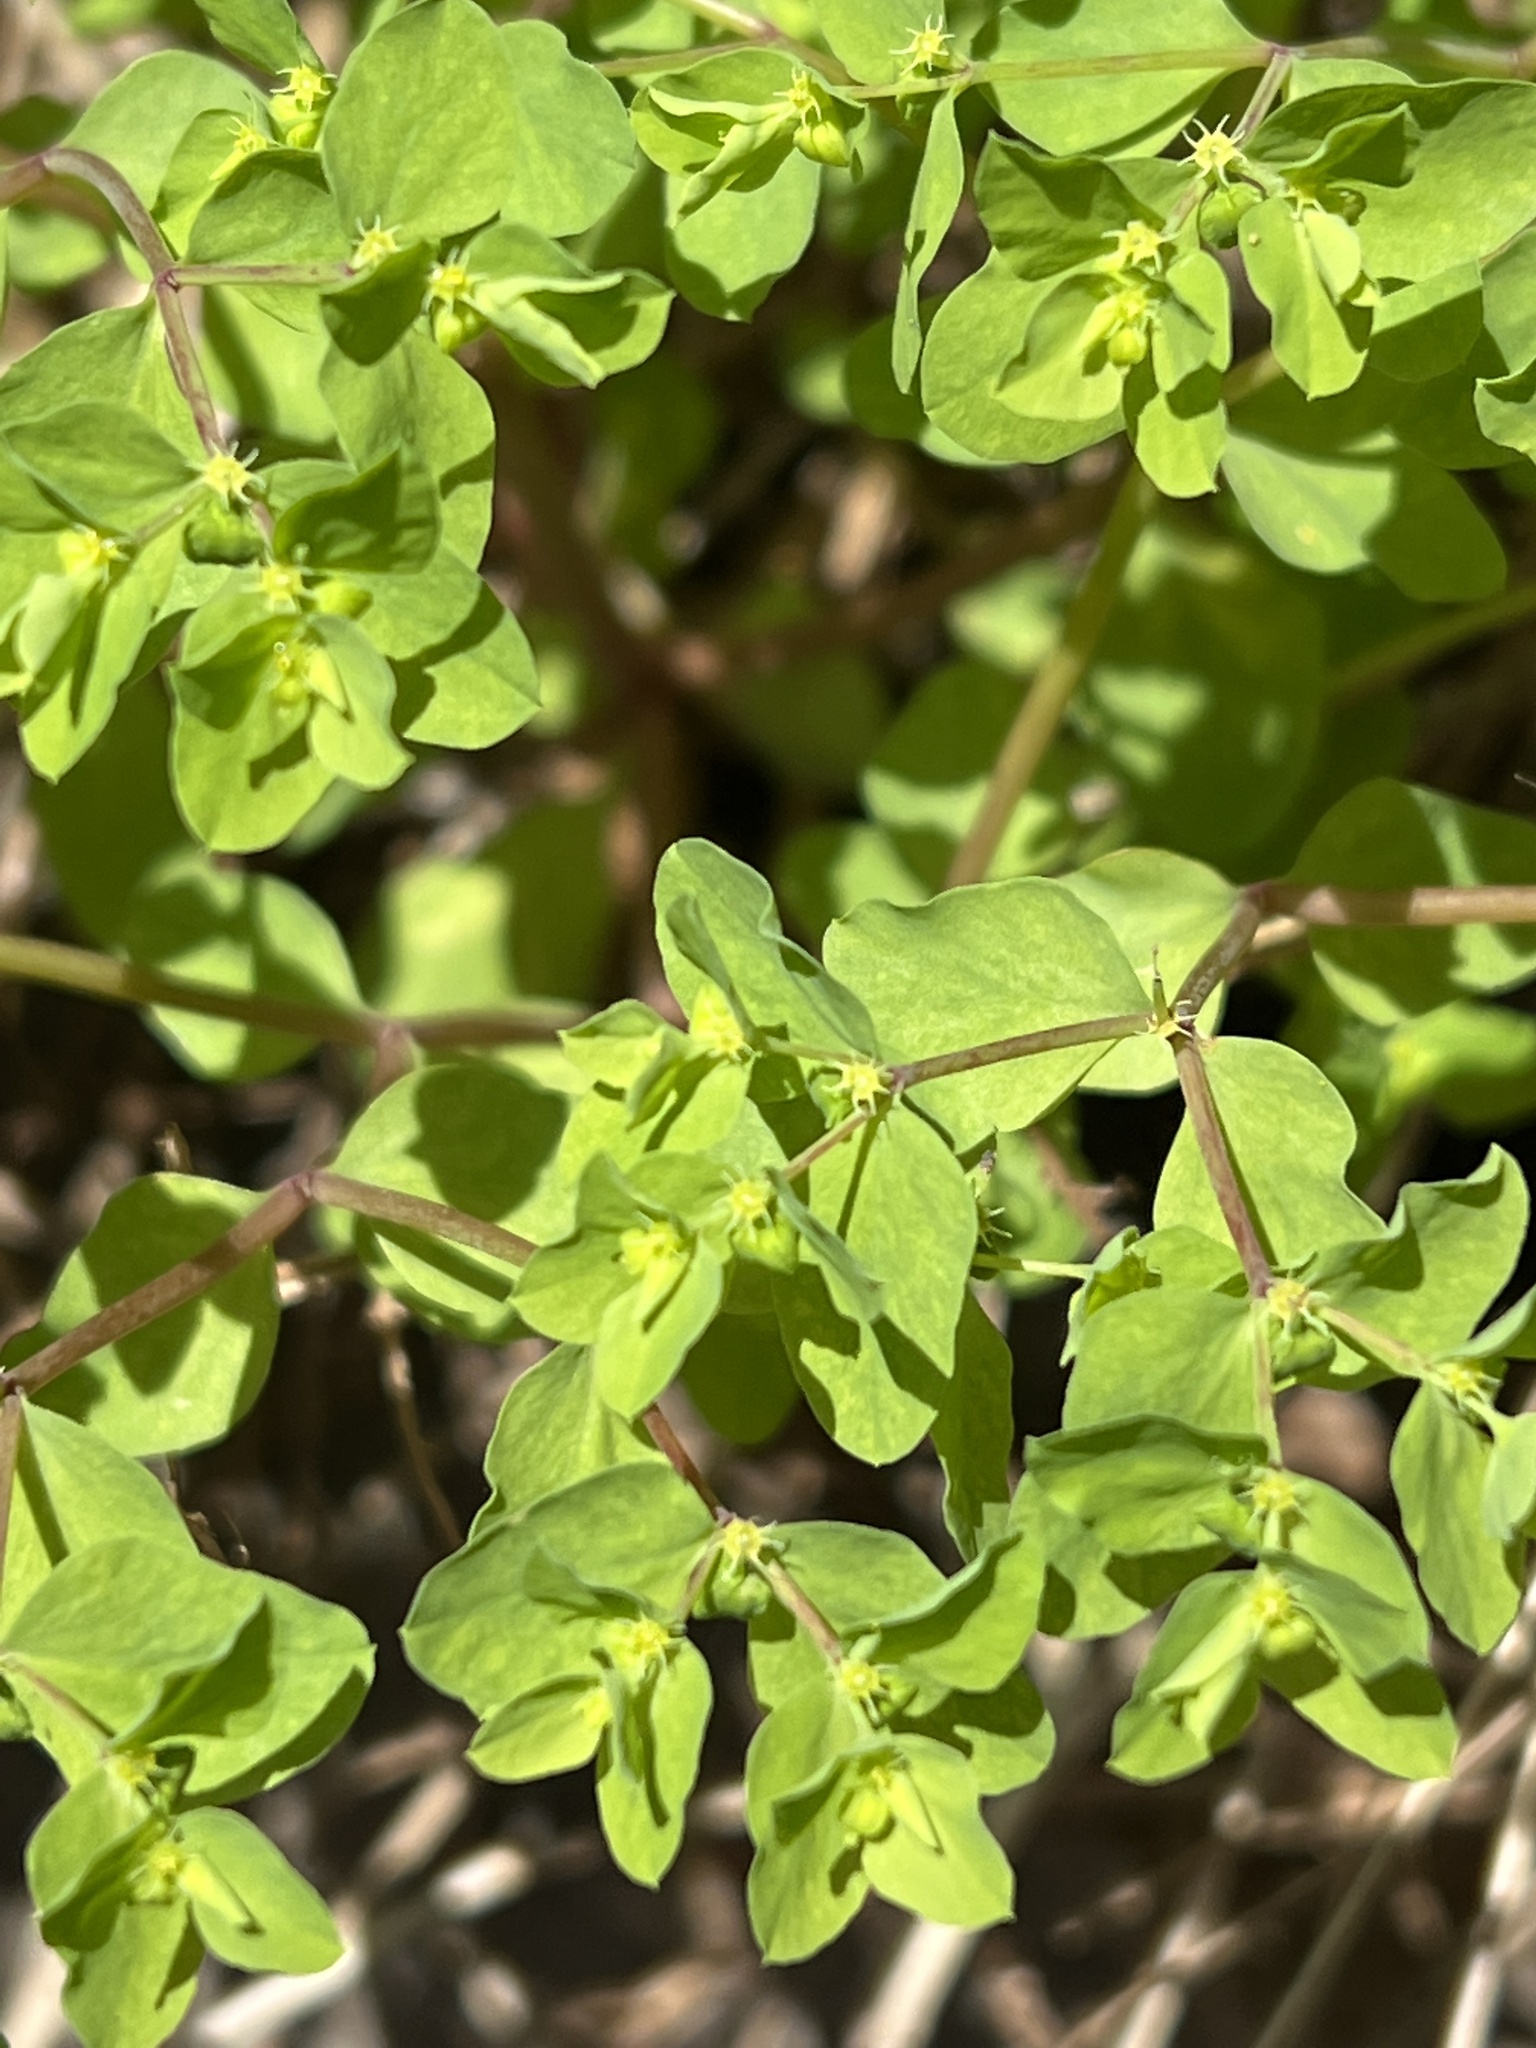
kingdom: Plantae
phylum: Tracheophyta
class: Magnoliopsida
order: Malpighiales
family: Euphorbiaceae
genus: Euphorbia
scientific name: Euphorbia peplus
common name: Petty spurge
